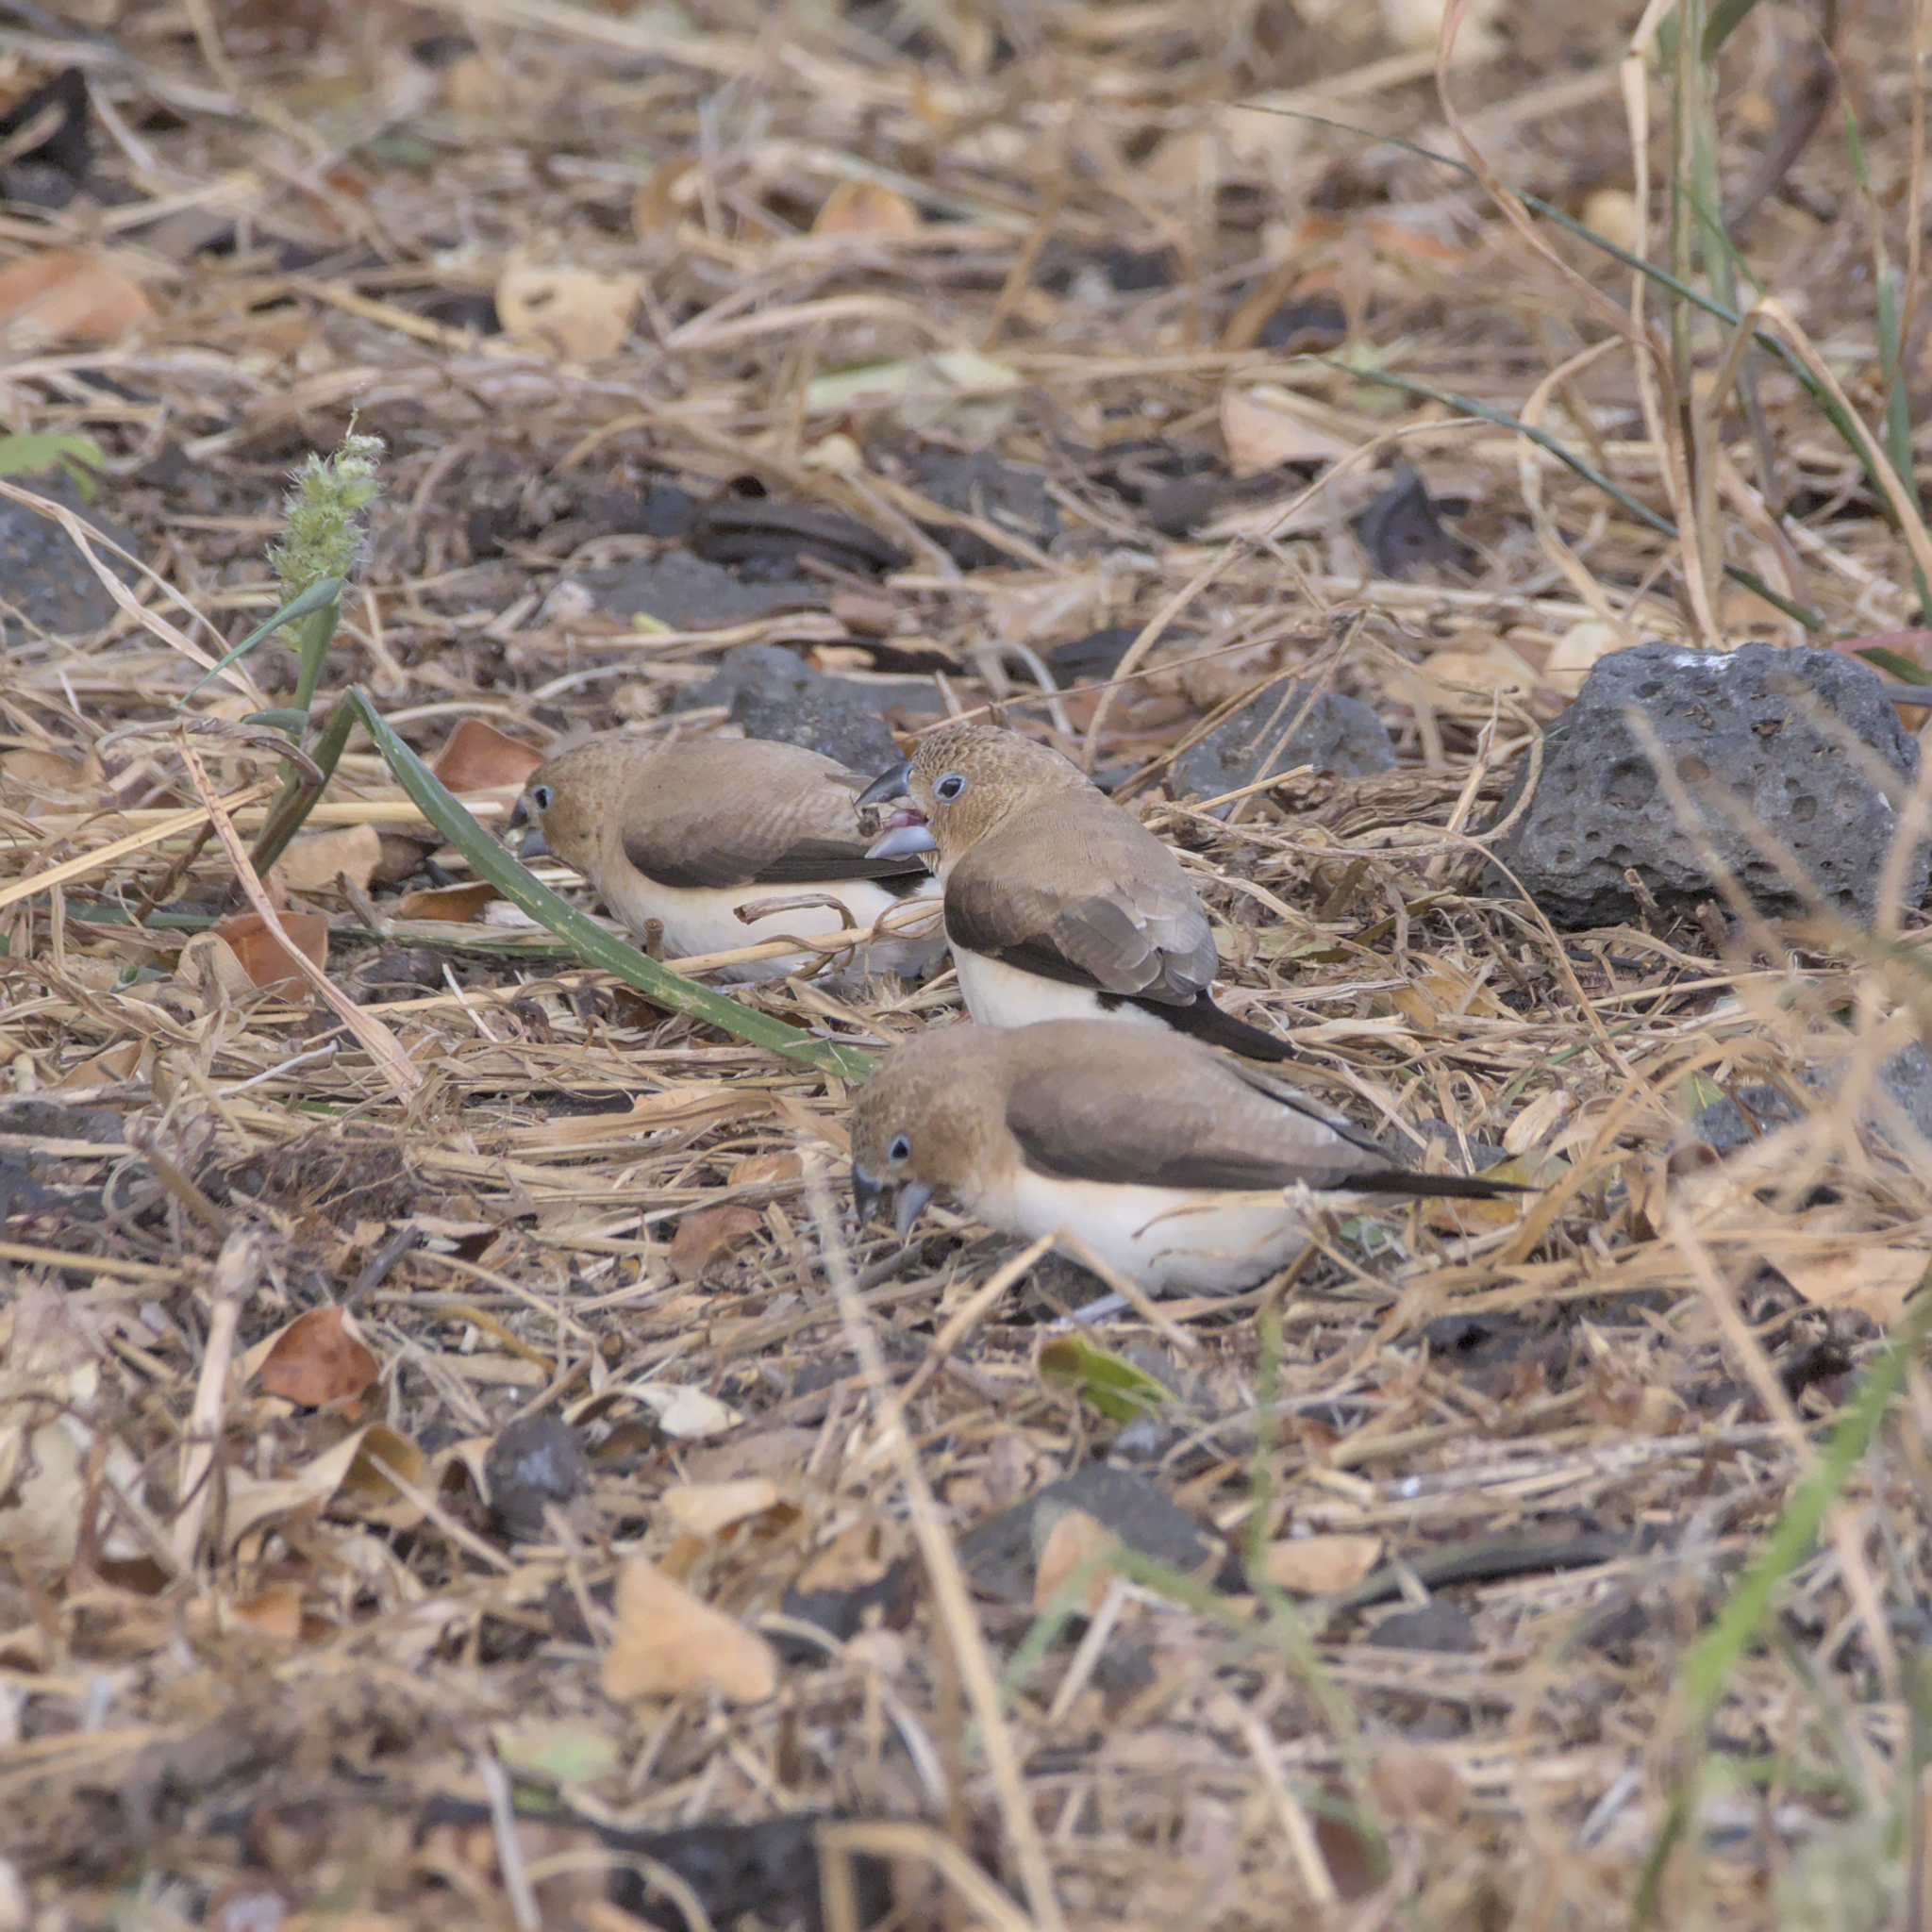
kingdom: Animalia
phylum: Chordata
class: Aves
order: Passeriformes
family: Estrildidae
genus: Euodice
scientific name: Euodice cantans
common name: African silverbill
